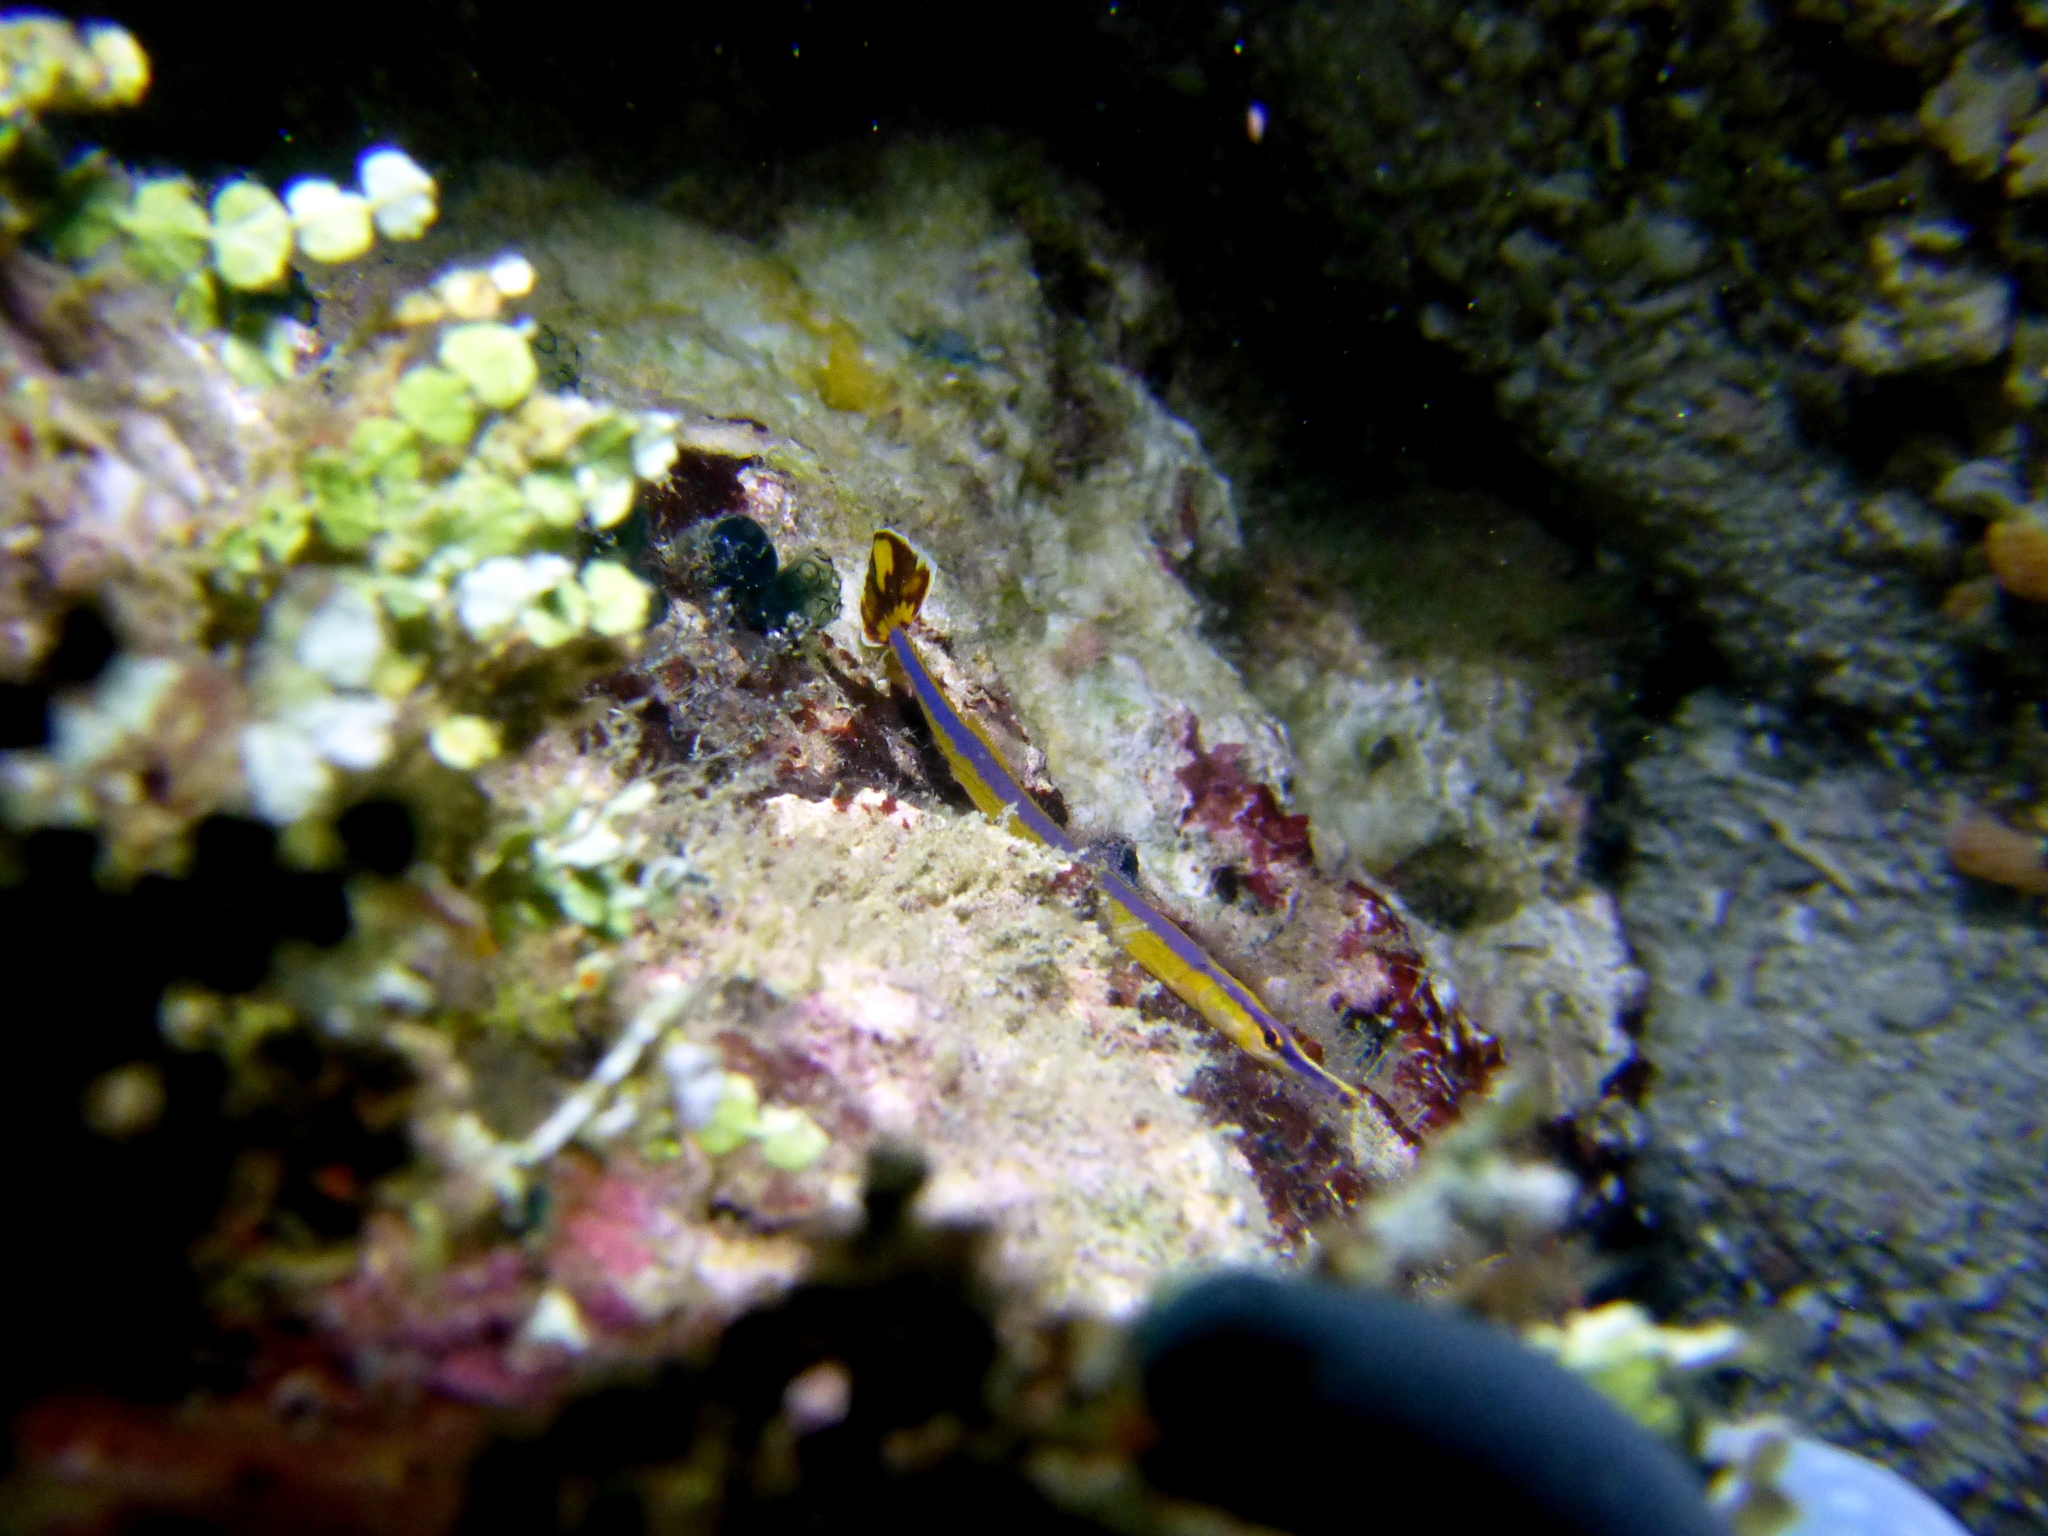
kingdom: Animalia
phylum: Chordata
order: Syngnathiformes
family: Syngnathidae
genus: Doryrhamphus
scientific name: Doryrhamphus excisus
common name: Bluestripe pipefish
